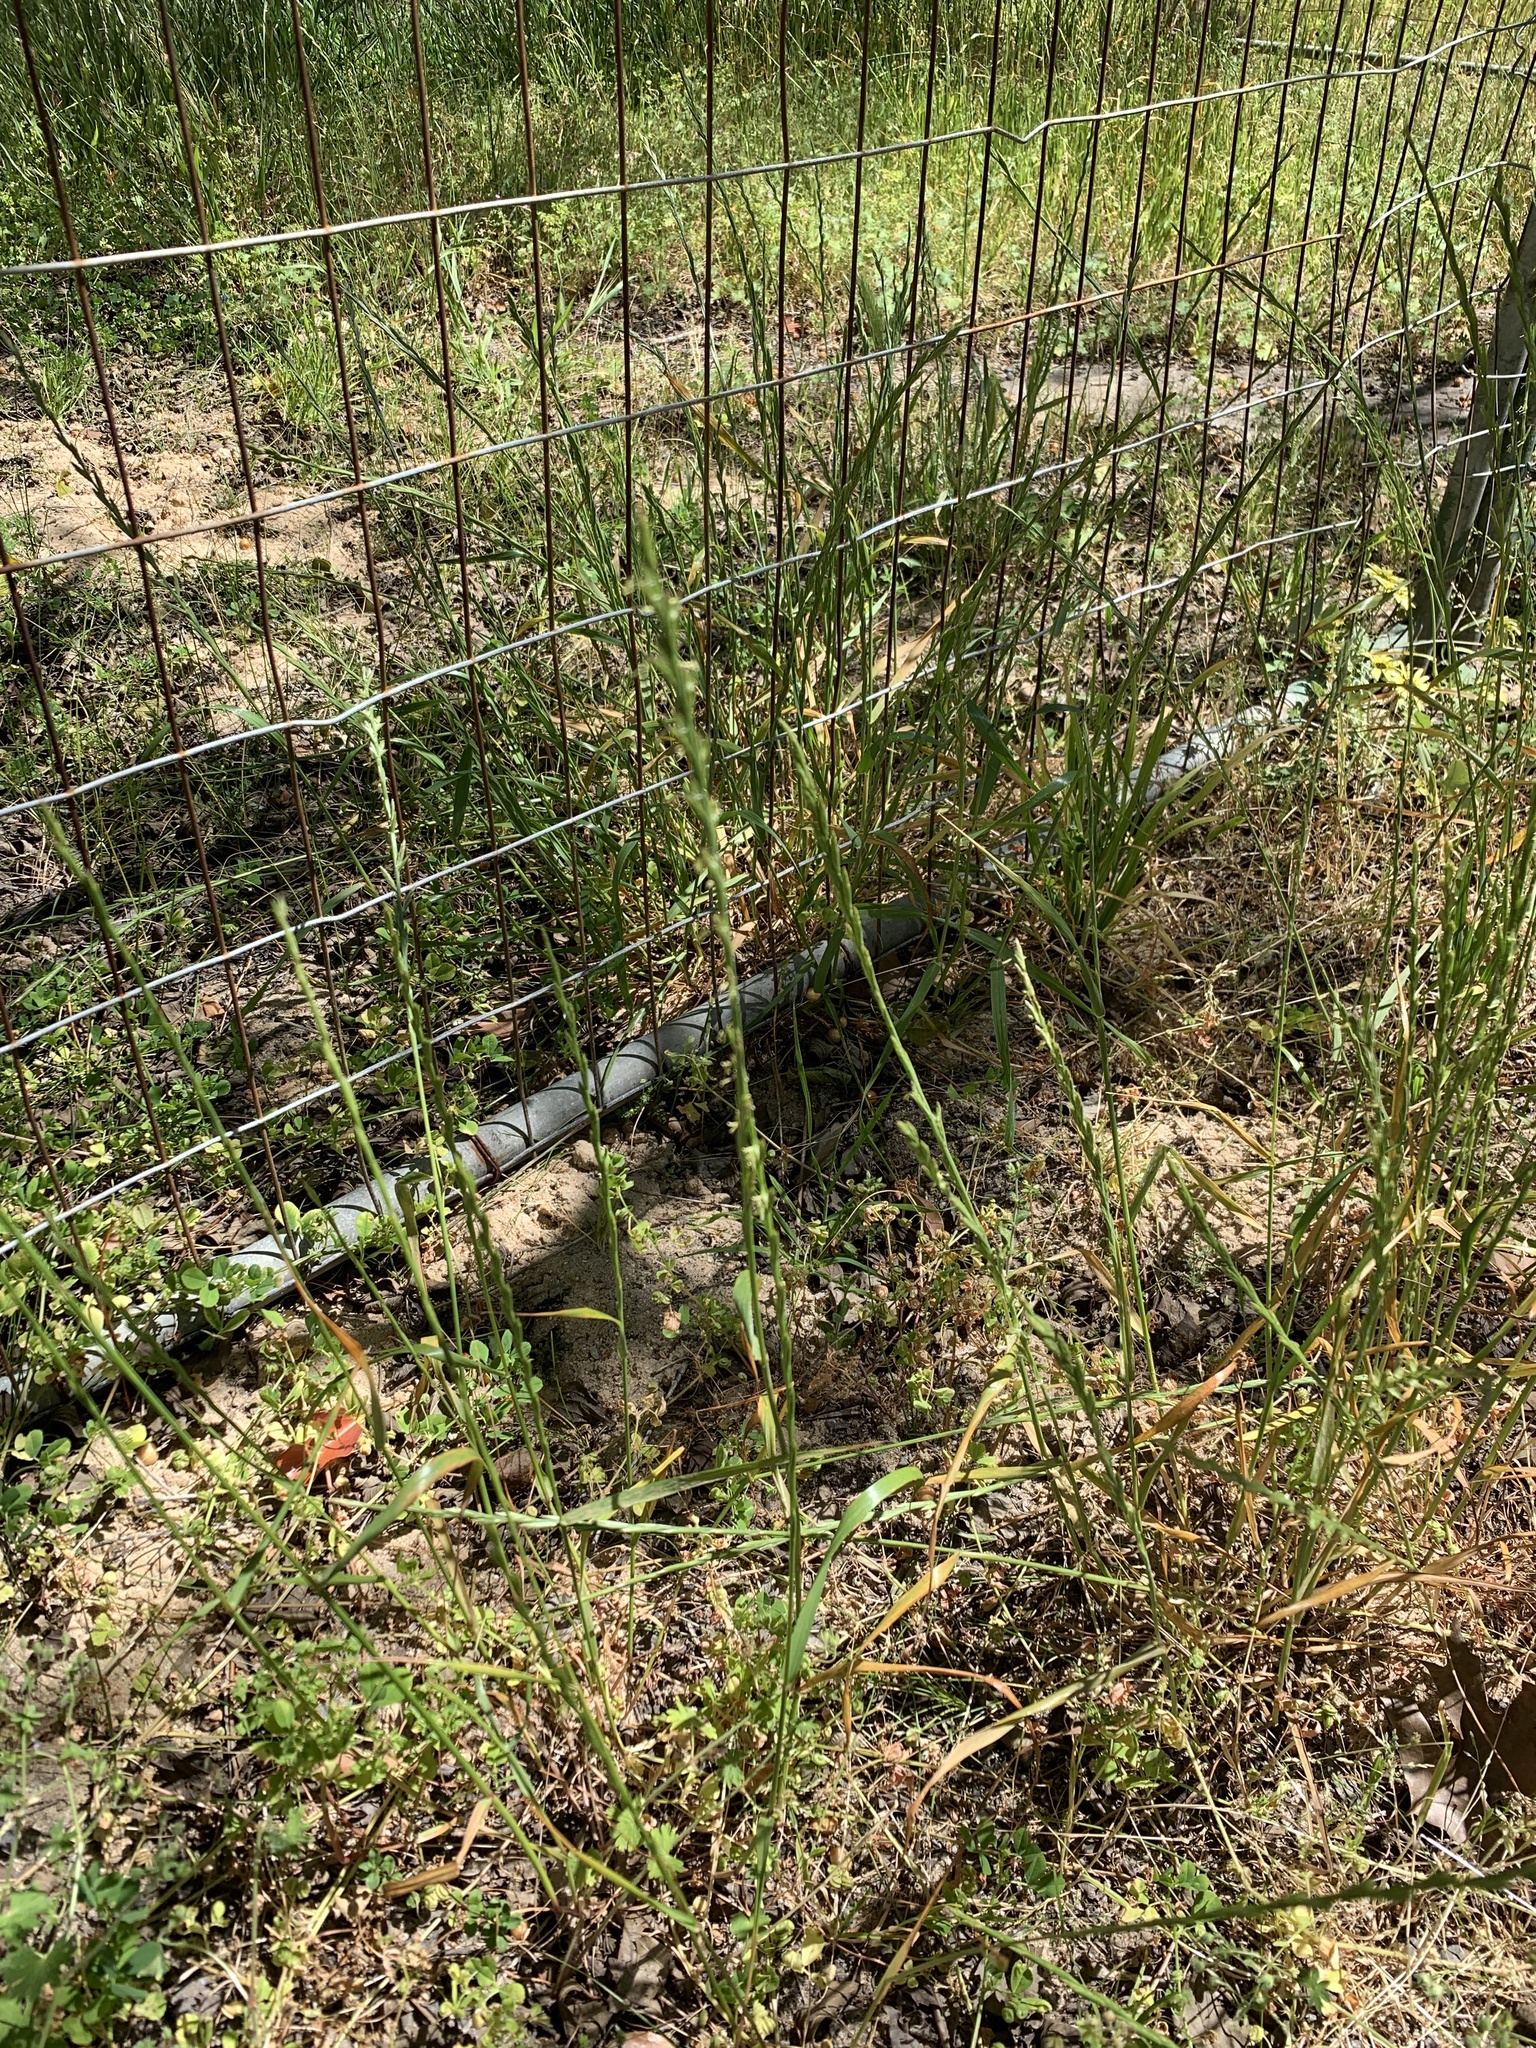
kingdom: Plantae
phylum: Tracheophyta
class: Liliopsida
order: Poales
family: Poaceae
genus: Lolium
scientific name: Lolium
